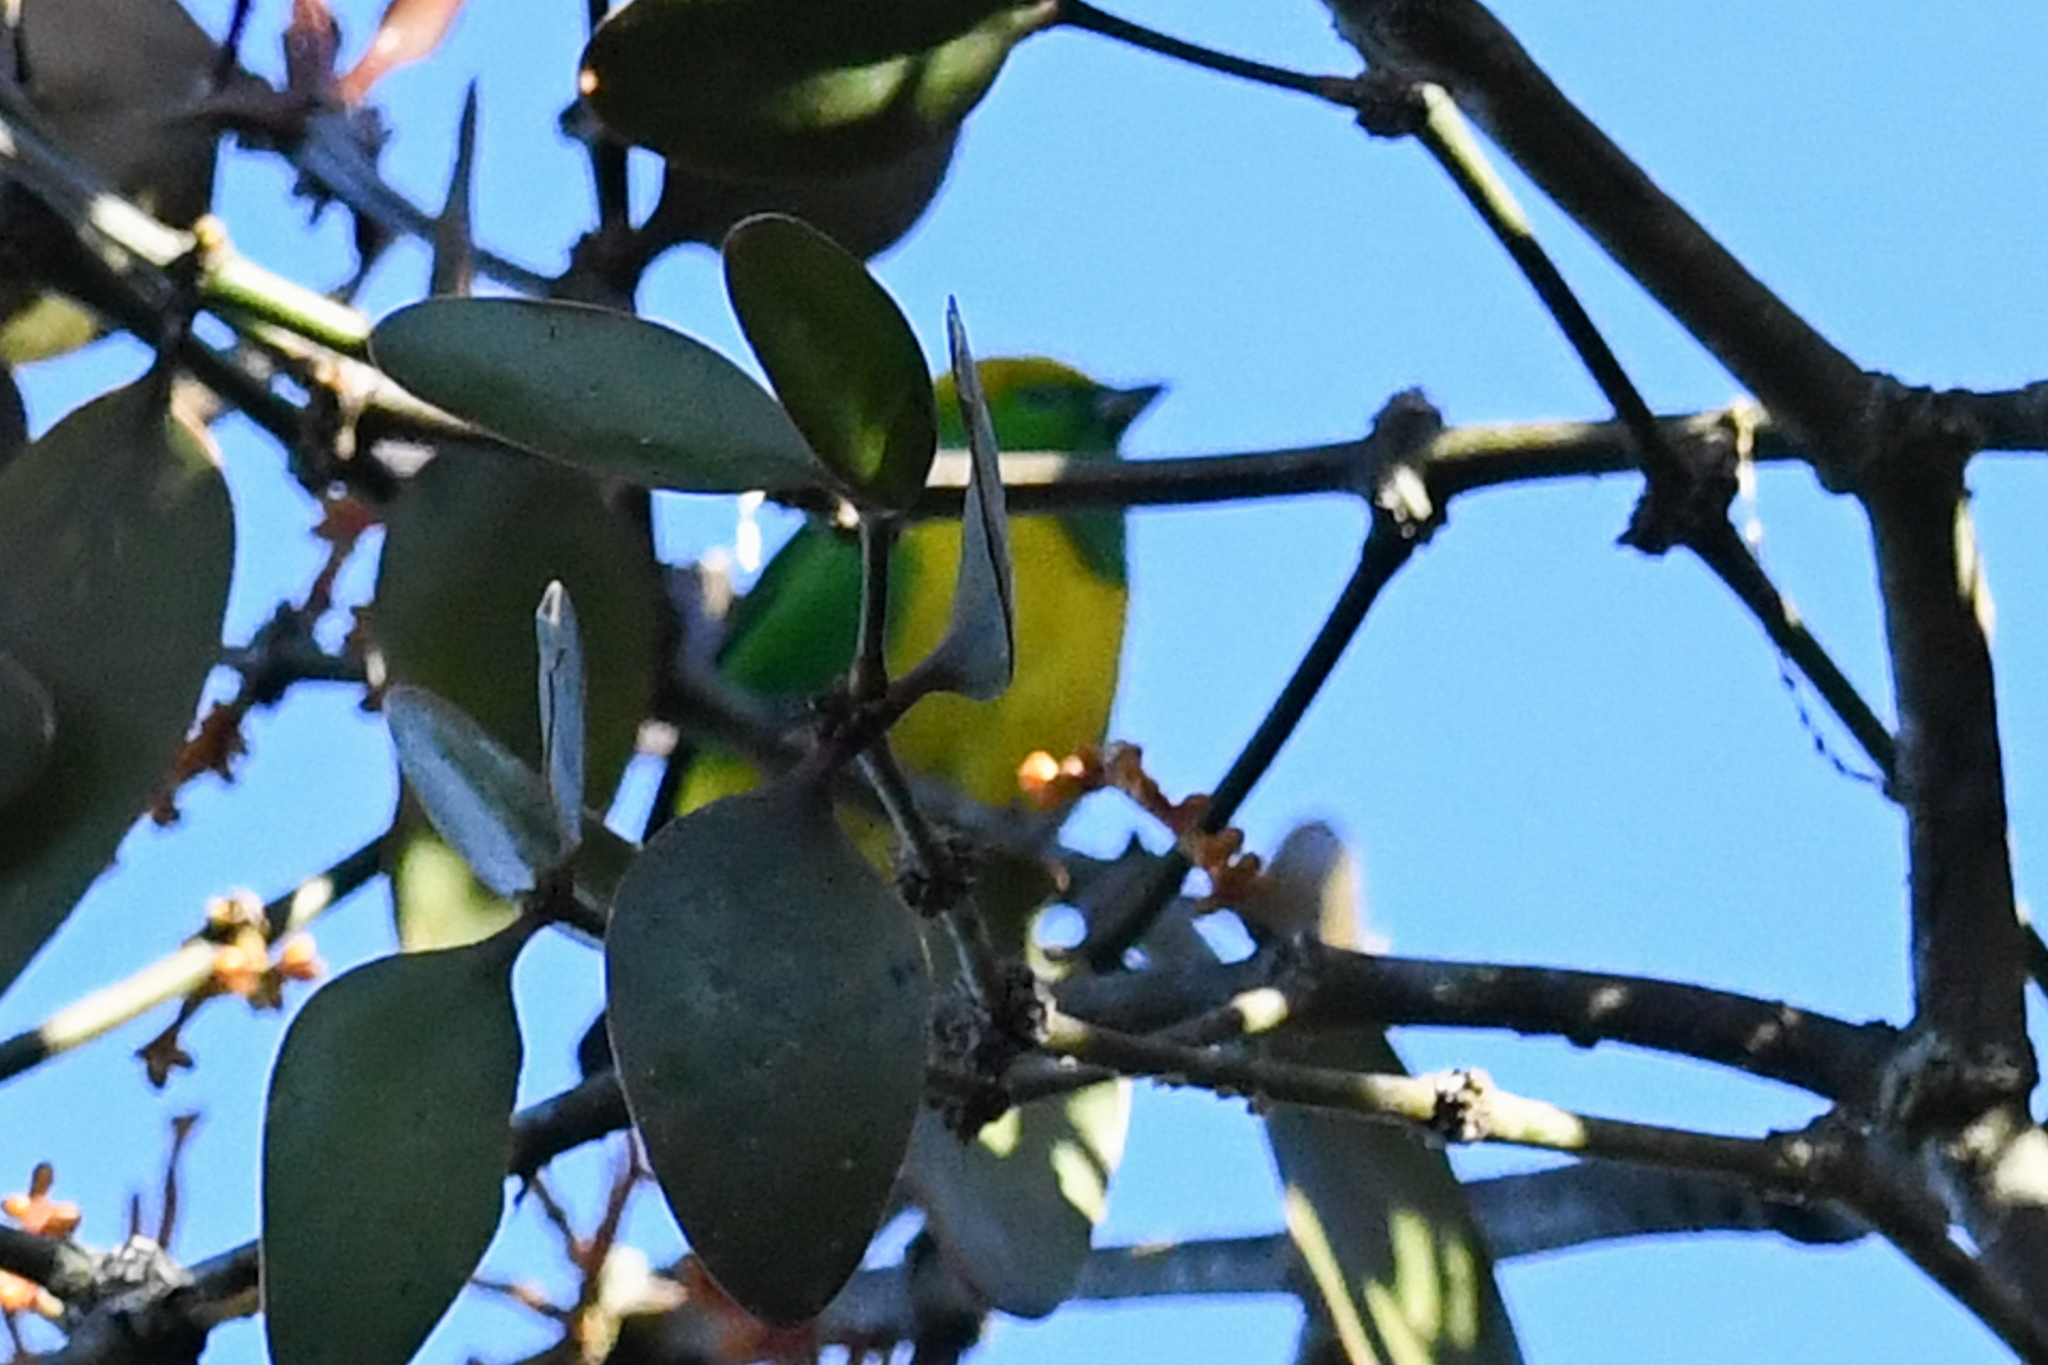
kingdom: Animalia
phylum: Chordata
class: Aves
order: Passeriformes
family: Fringillidae
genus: Chlorophonia
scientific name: Chlorophonia callophrys
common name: Golden-browed chlorophonia
